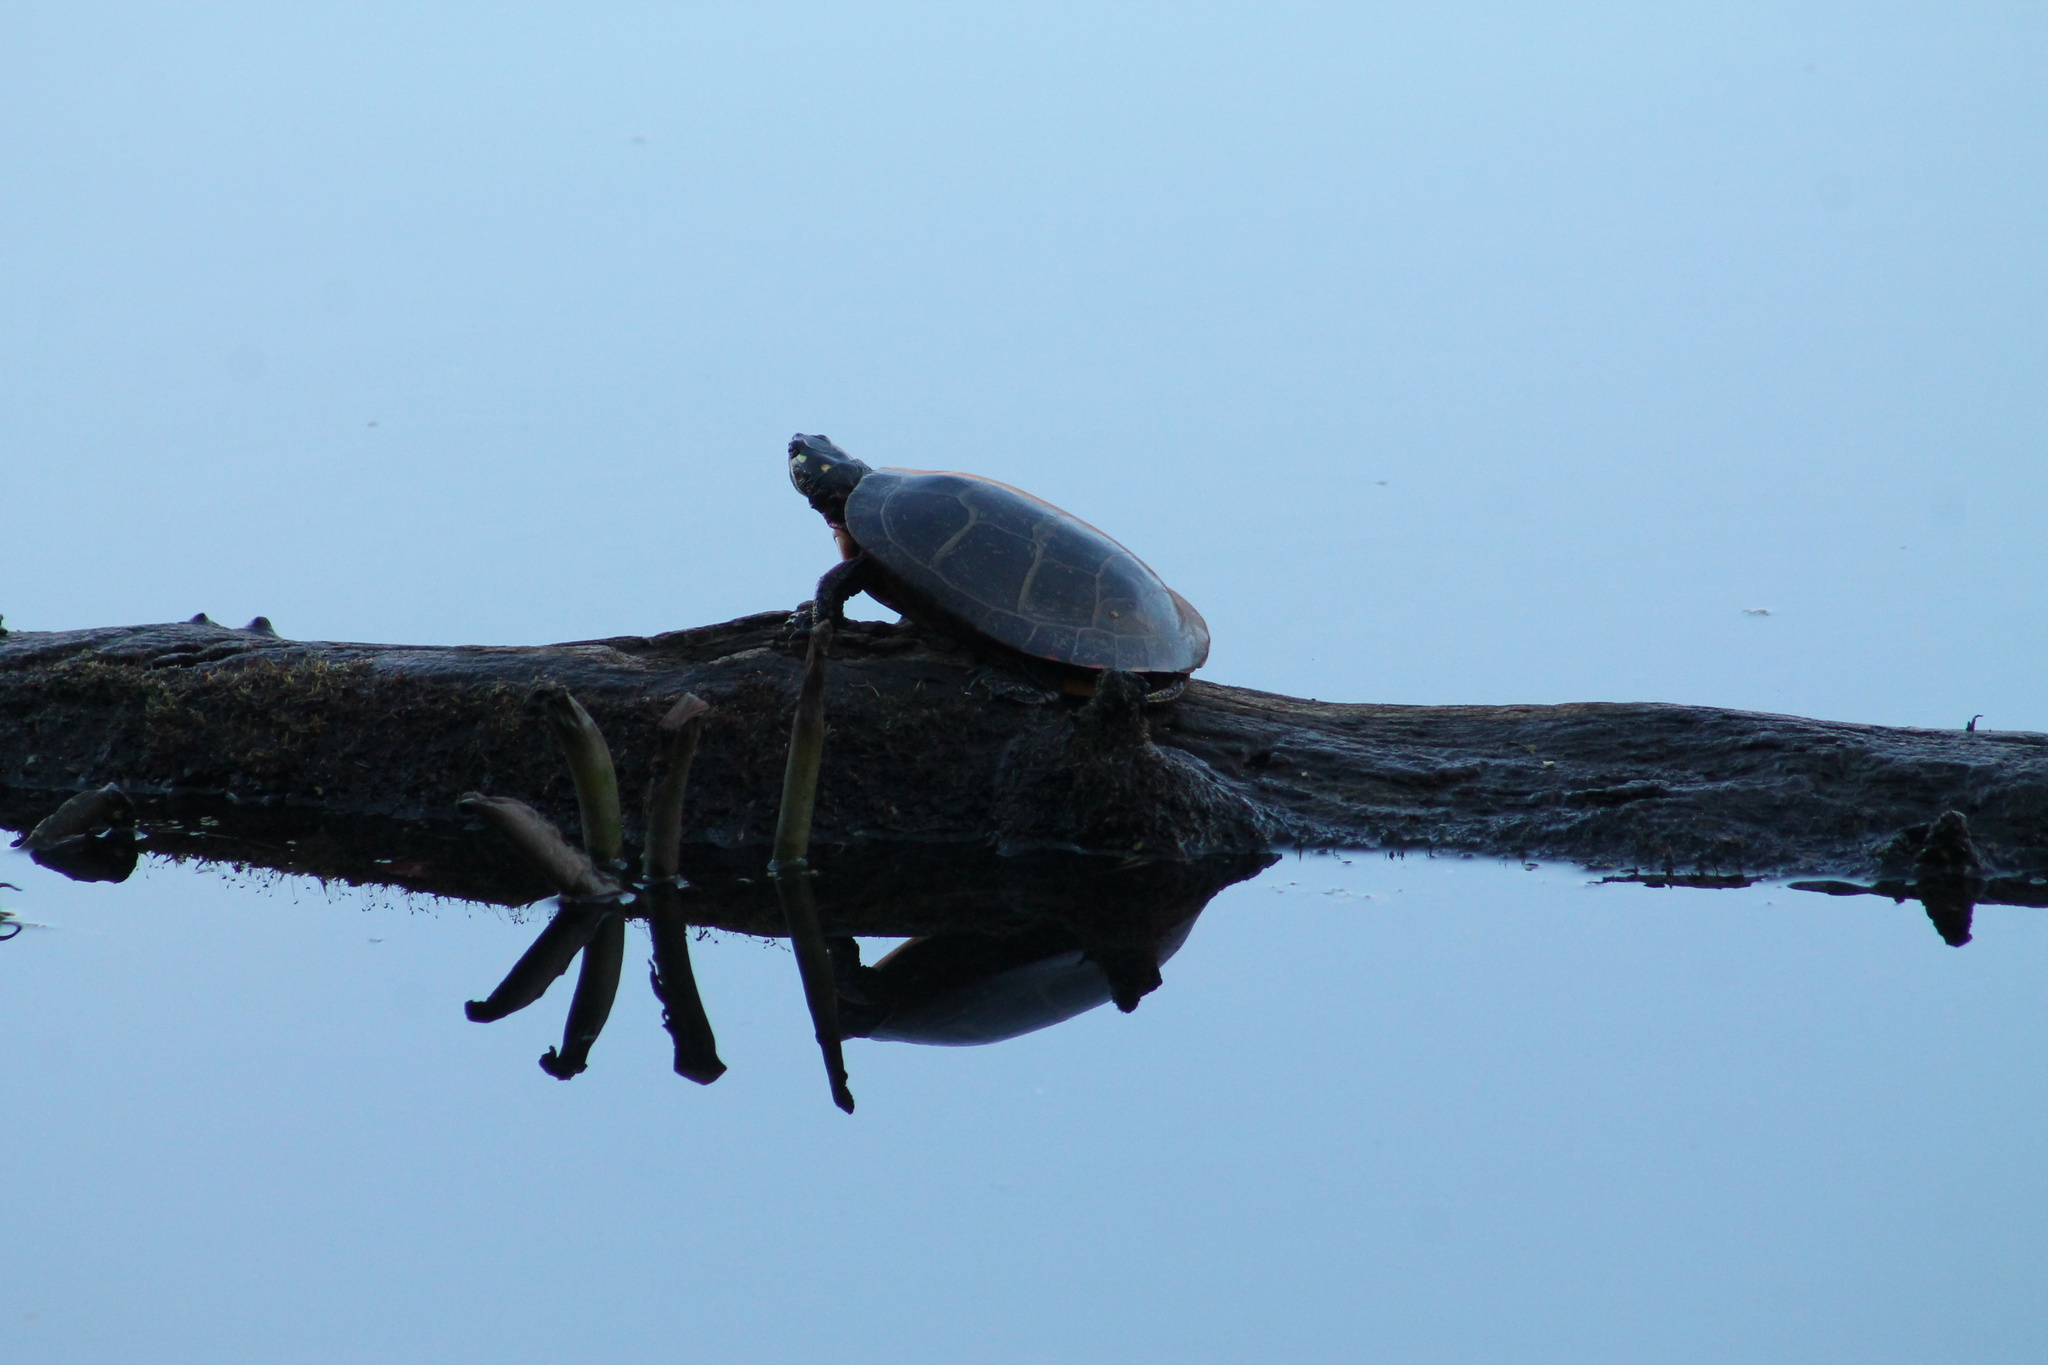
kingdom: Animalia
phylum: Chordata
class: Testudines
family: Emydidae
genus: Chrysemys
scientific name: Chrysemys picta
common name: Painted turtle
